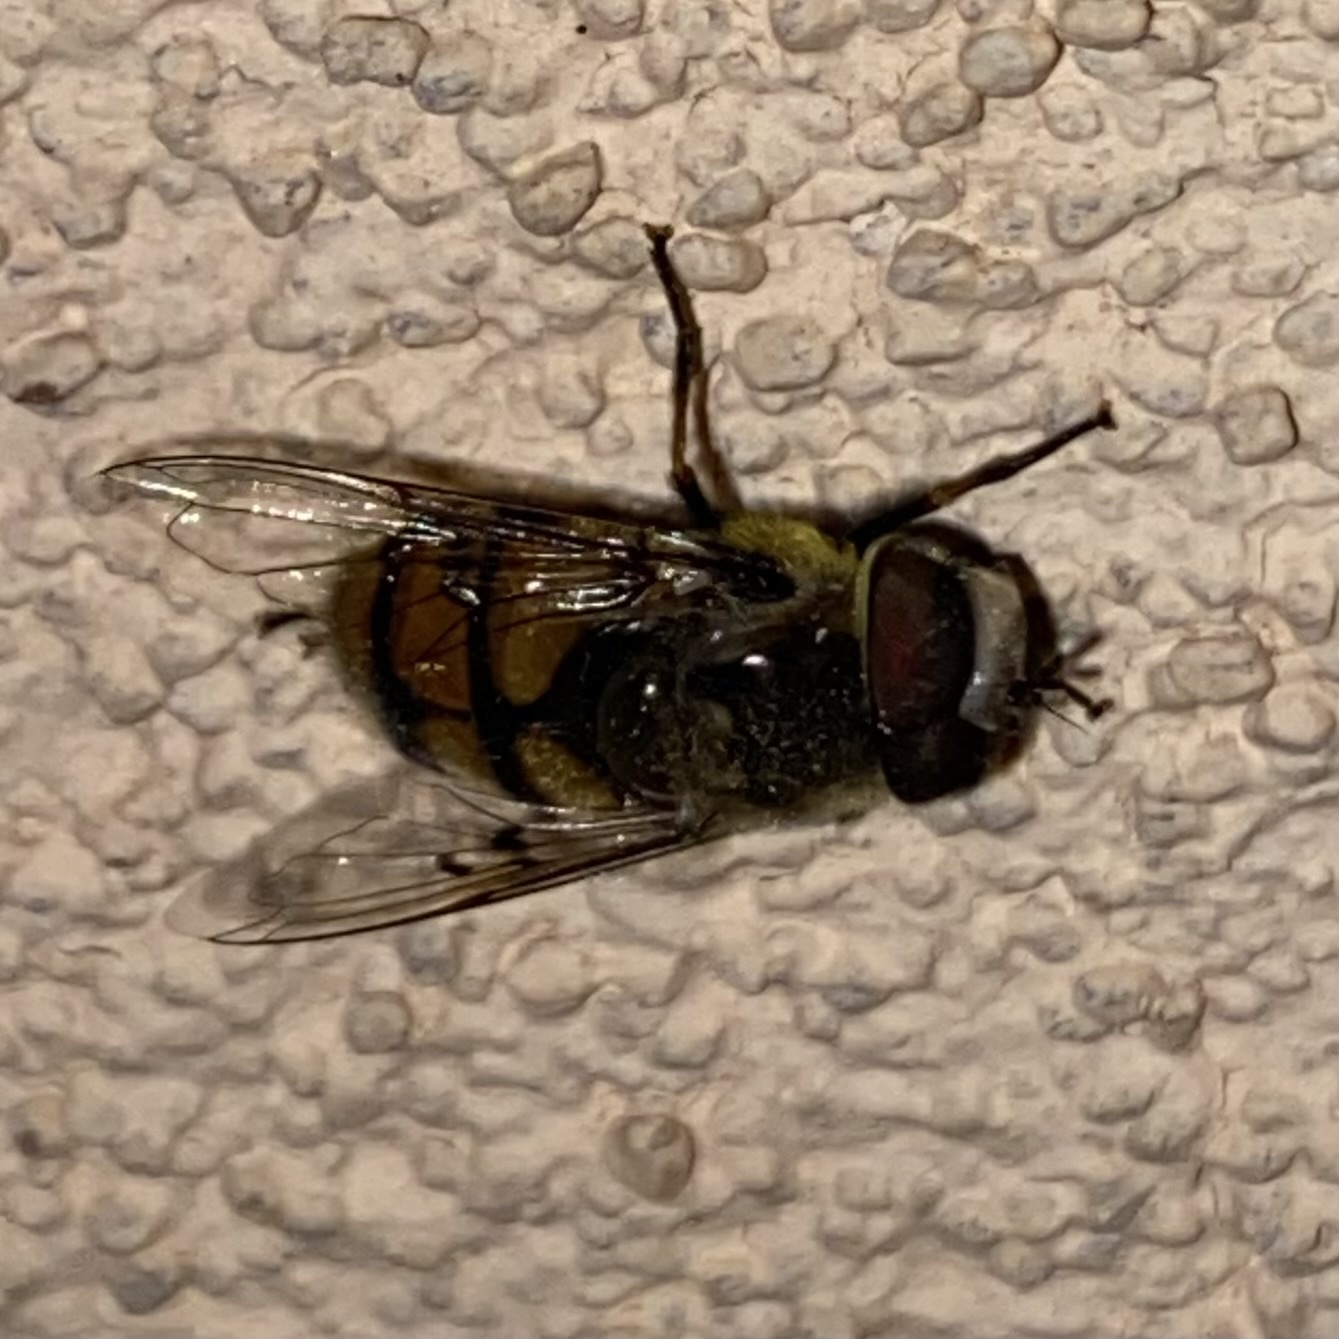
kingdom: Animalia
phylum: Arthropoda
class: Insecta
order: Diptera
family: Syrphidae
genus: Copestylum
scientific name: Copestylum avidum
